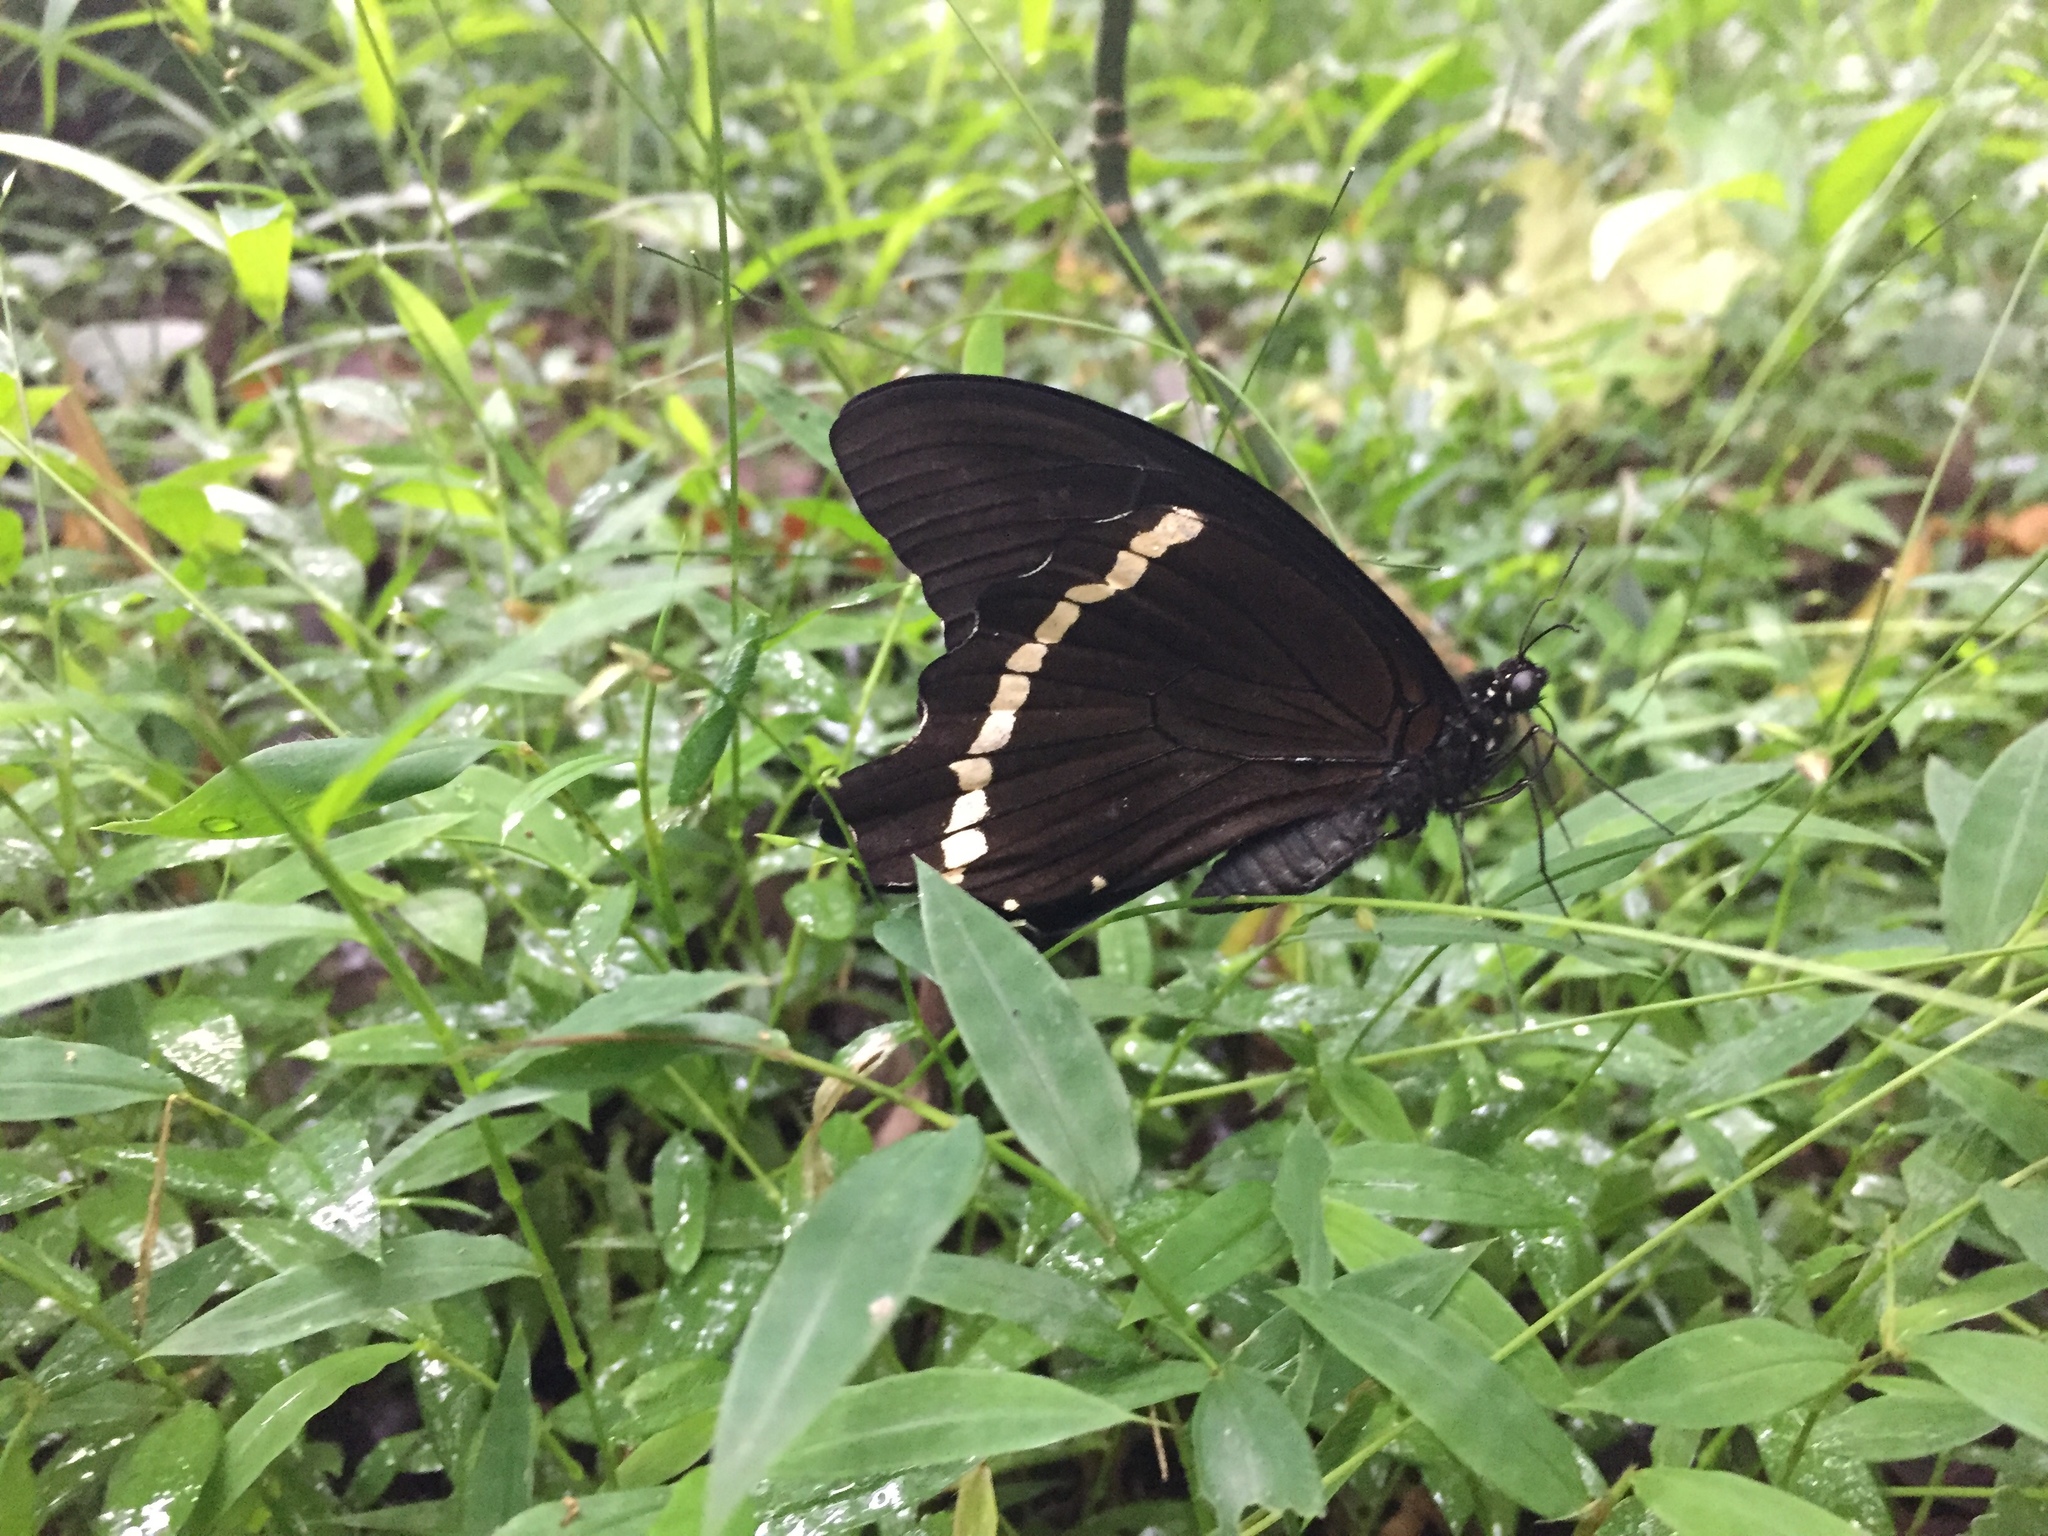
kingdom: Animalia
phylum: Arthropoda
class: Insecta
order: Lepidoptera
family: Papilionidae
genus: Papilio
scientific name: Papilio nireus
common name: Greenbanded swallowtail
